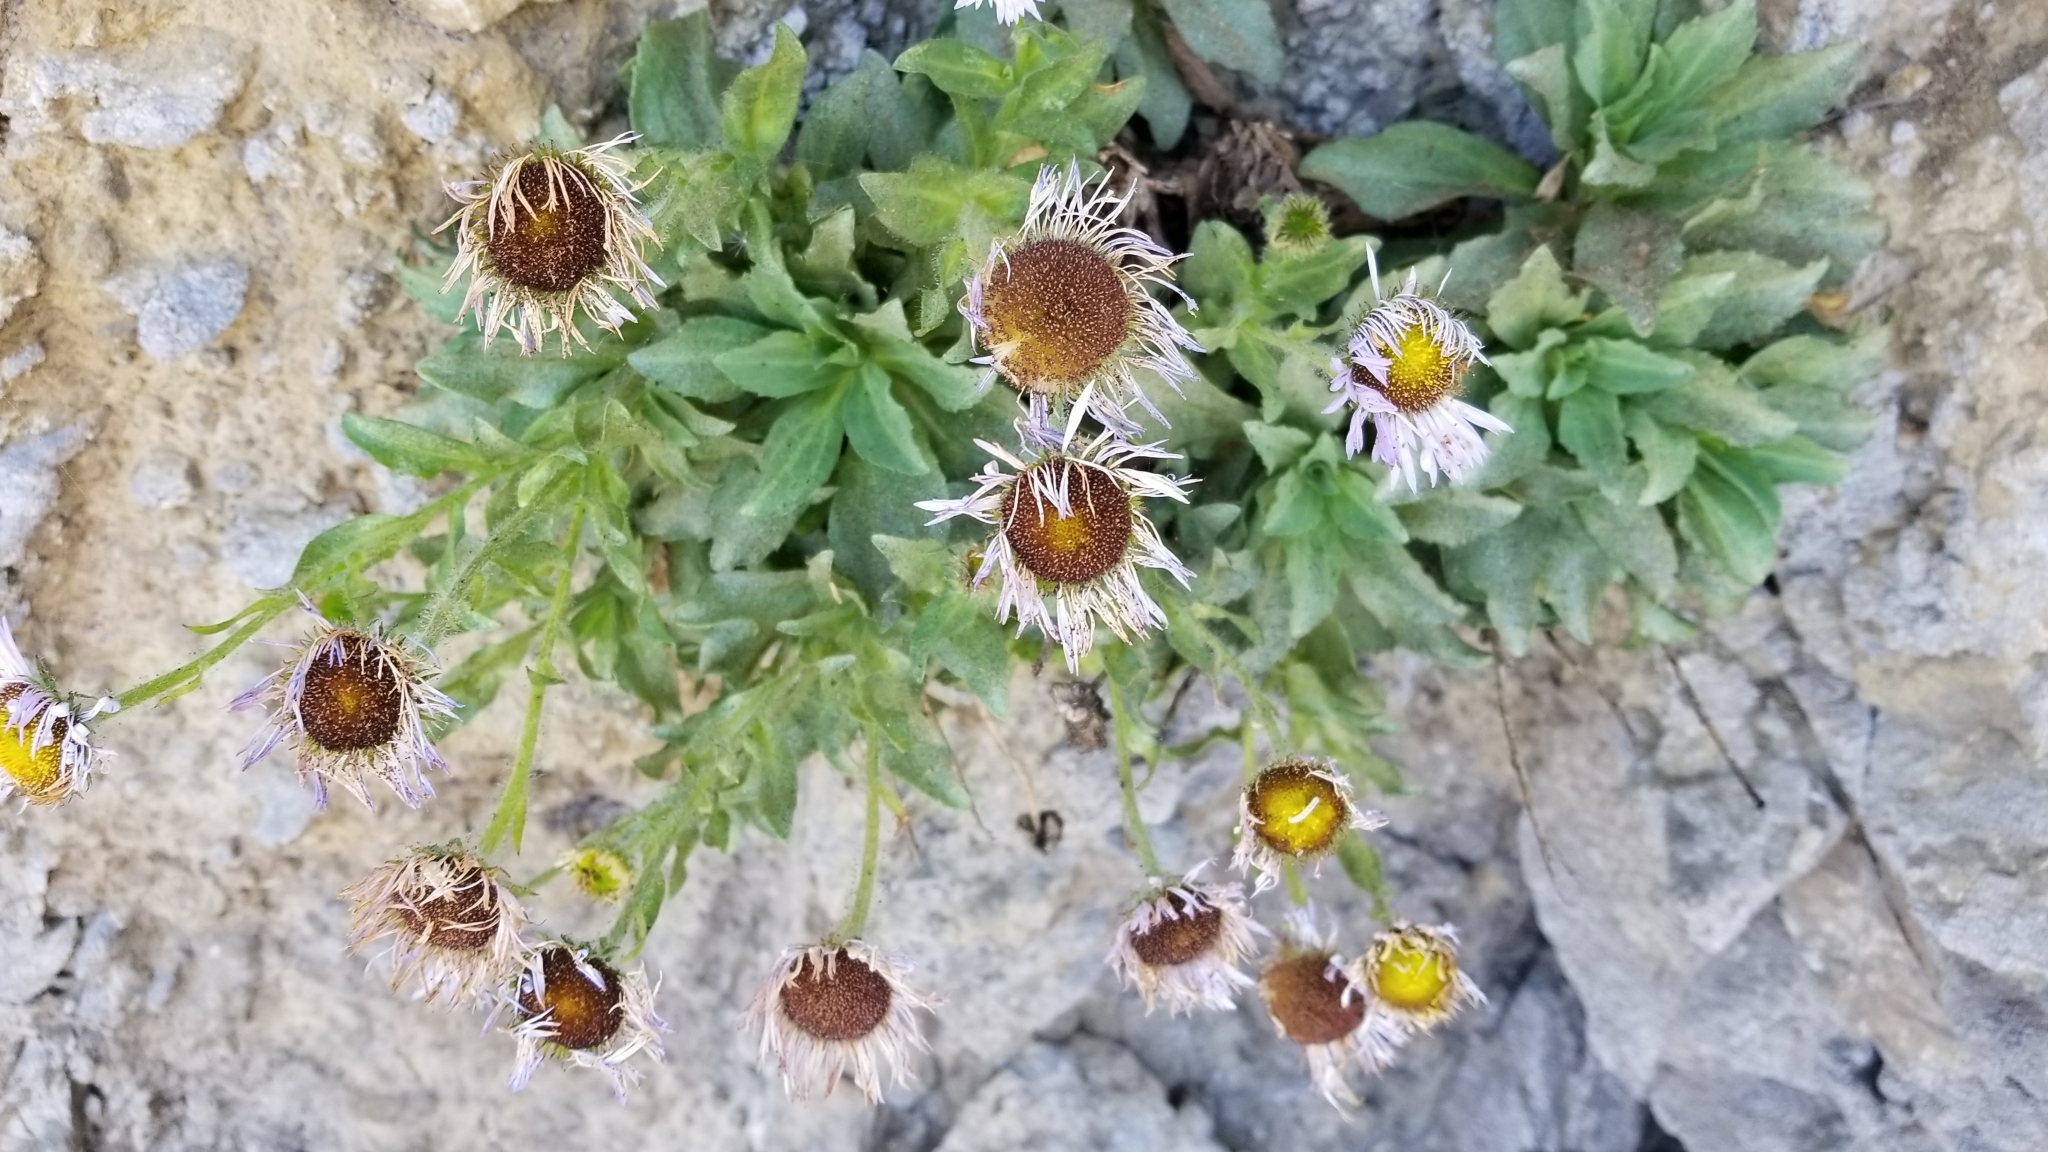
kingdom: Plantae
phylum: Tracheophyta
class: Magnoliopsida
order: Asterales
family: Asteraceae
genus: Erigeron
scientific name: Erigeron glaucus
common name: Seaside daisy
